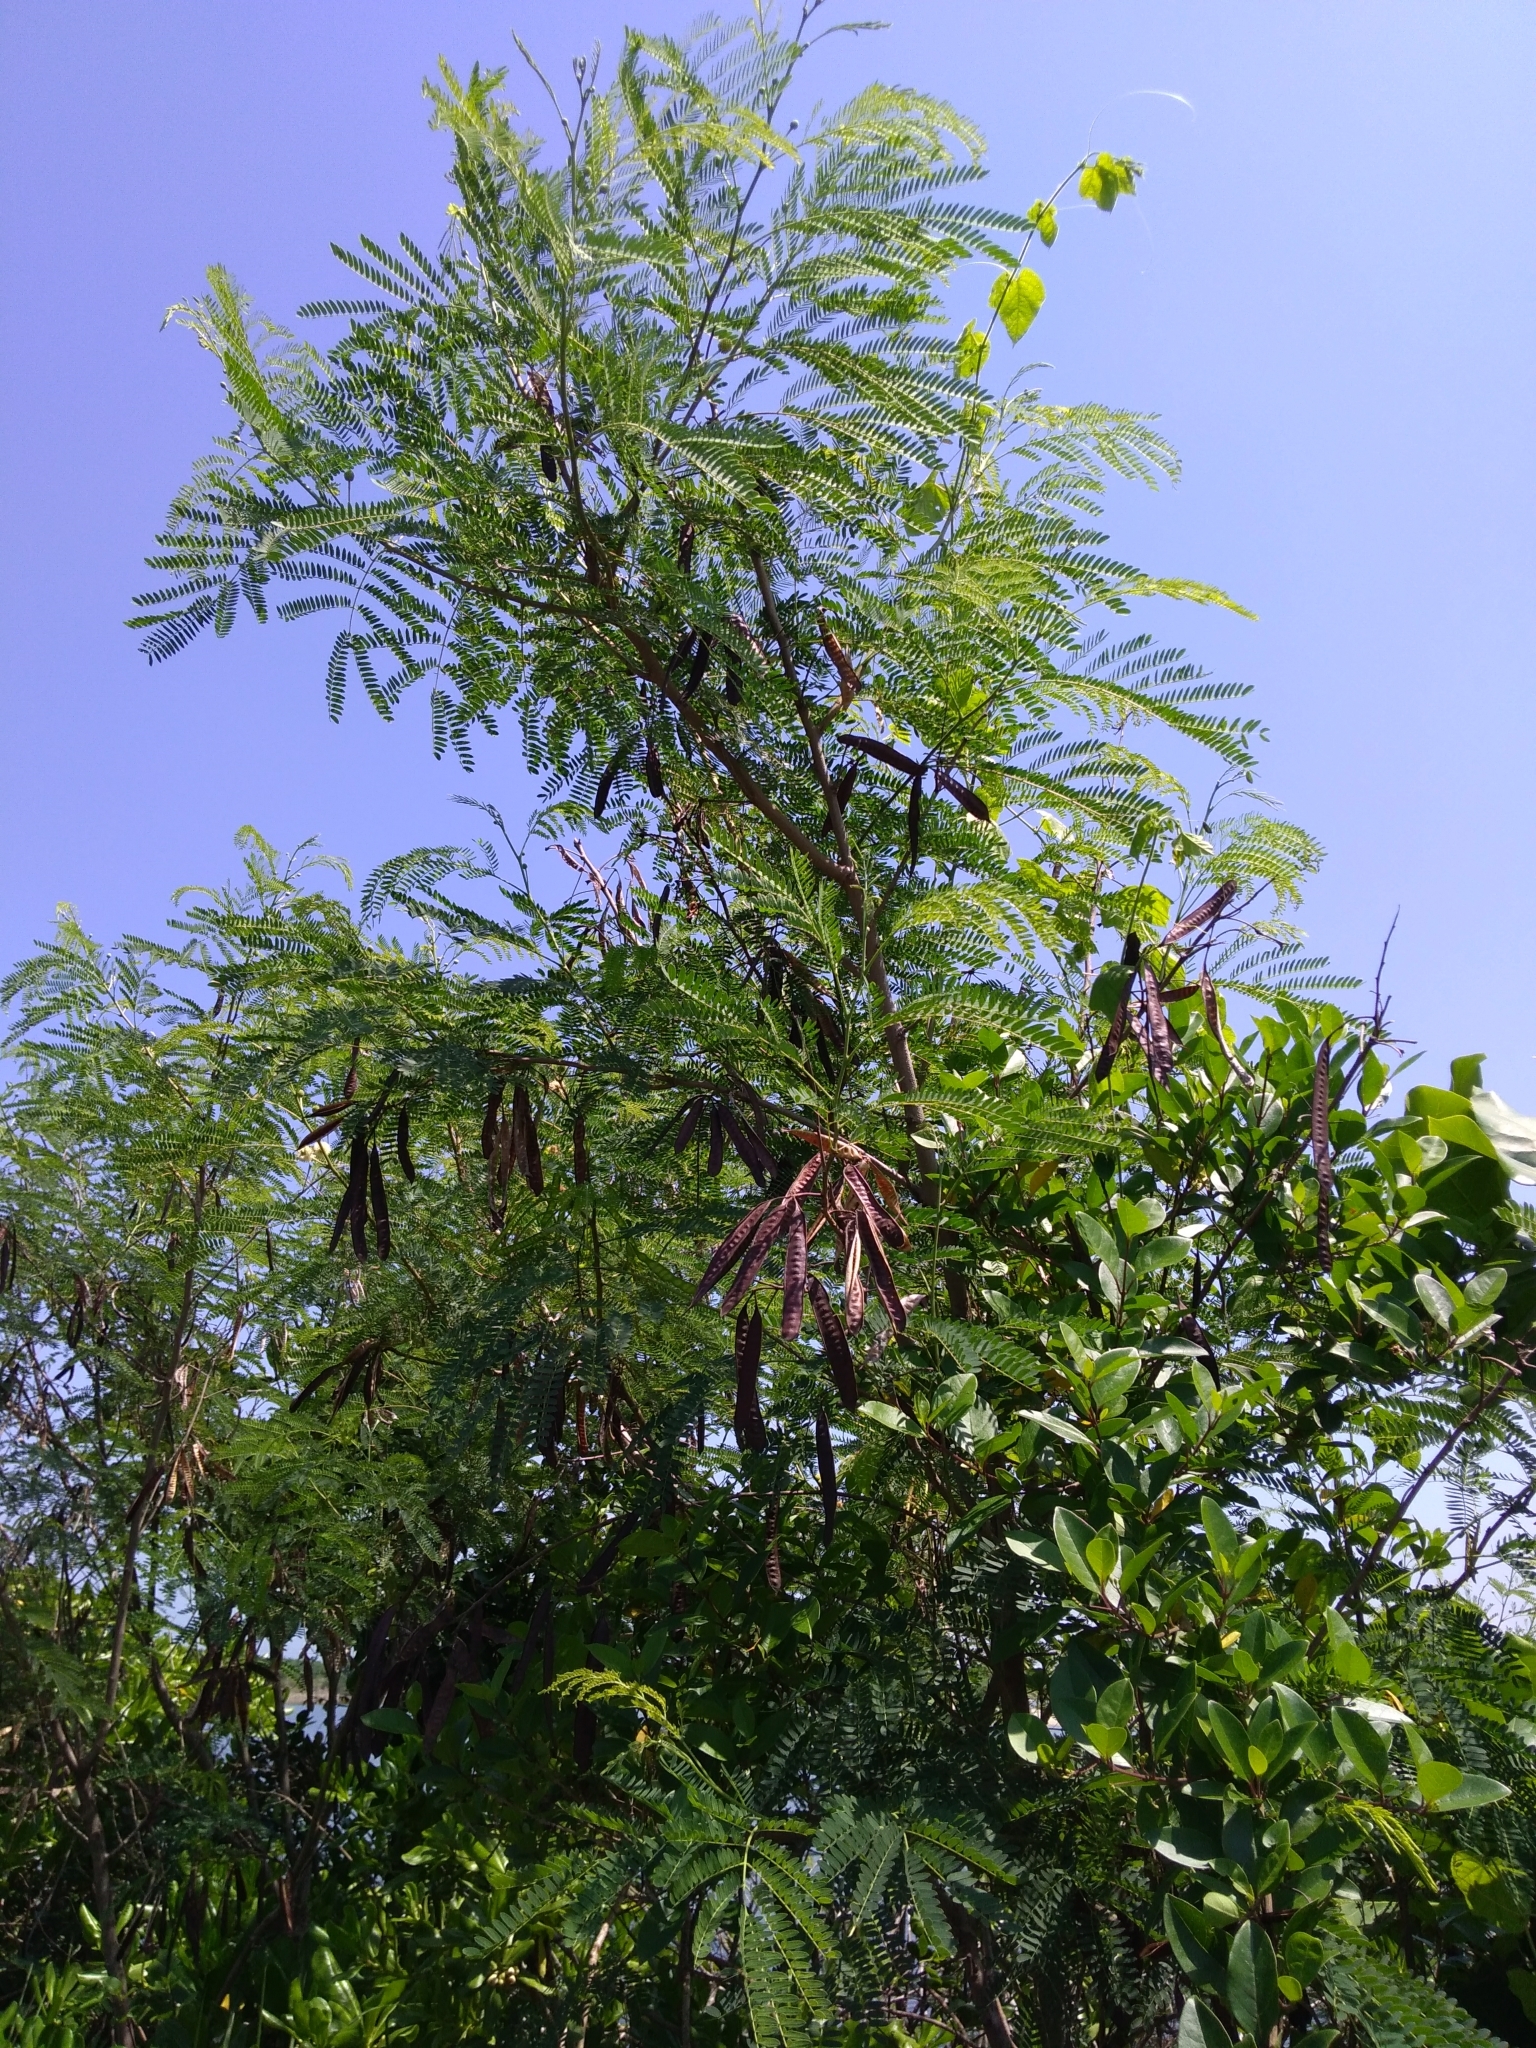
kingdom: Plantae
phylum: Tracheophyta
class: Magnoliopsida
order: Fabales
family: Fabaceae
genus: Leucaena
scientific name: Leucaena leucocephala
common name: White leadtree
